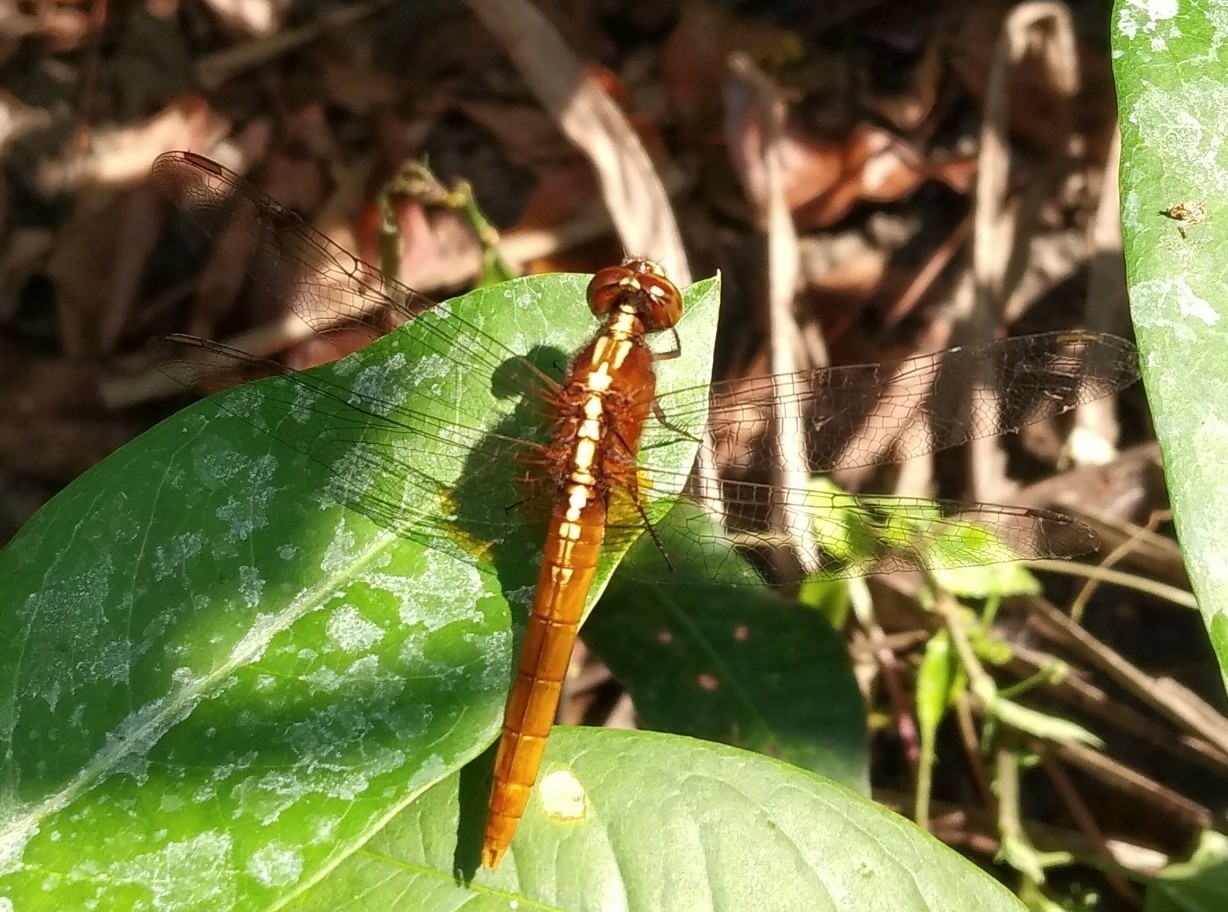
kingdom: Animalia
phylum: Arthropoda
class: Insecta
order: Odonata
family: Libellulidae
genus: Rhodothemis
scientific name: Rhodothemis rufa
